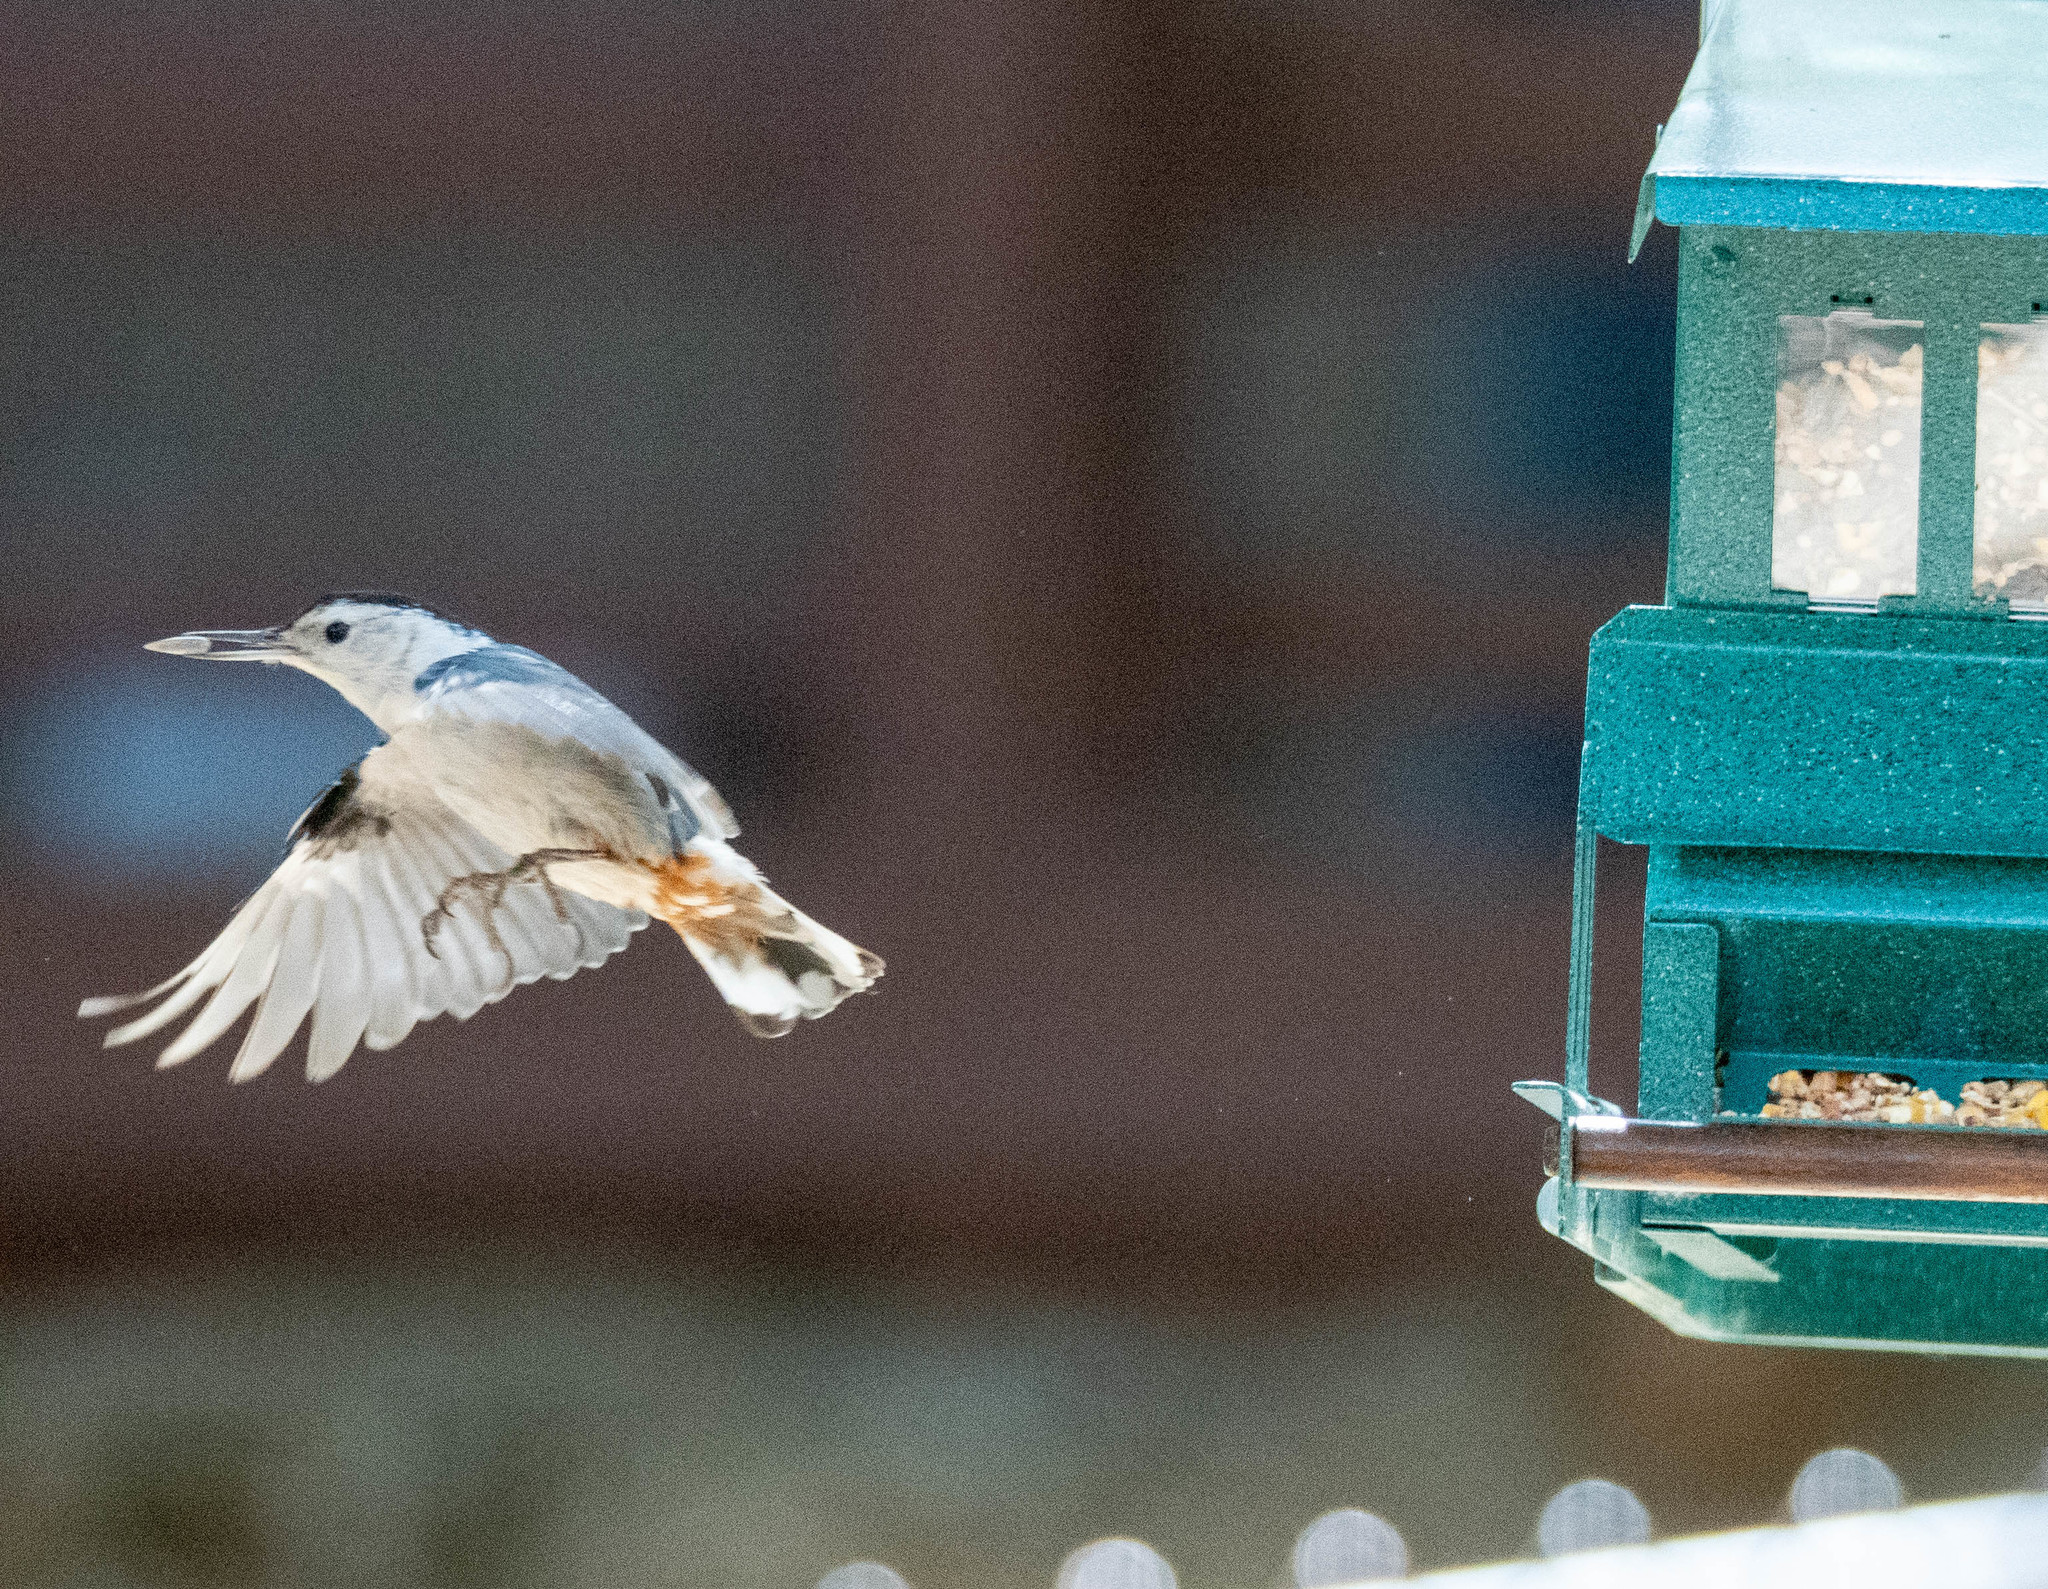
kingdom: Animalia
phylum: Chordata
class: Aves
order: Passeriformes
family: Sittidae
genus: Sitta
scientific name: Sitta carolinensis
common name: White-breasted nuthatch
